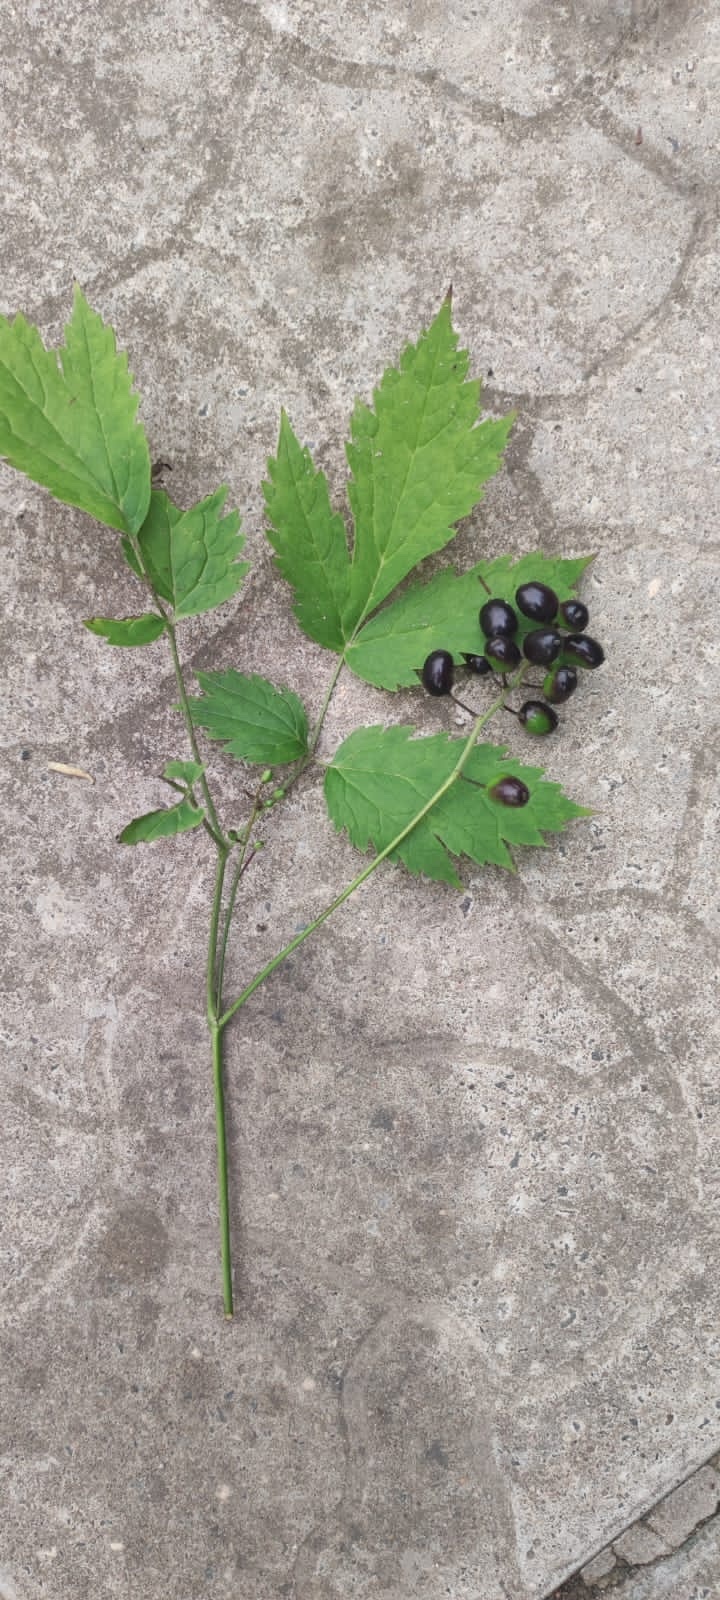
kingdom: Plantae
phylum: Tracheophyta
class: Magnoliopsida
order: Ranunculales
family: Ranunculaceae
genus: Actaea
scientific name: Actaea spicata
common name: Baneberry
